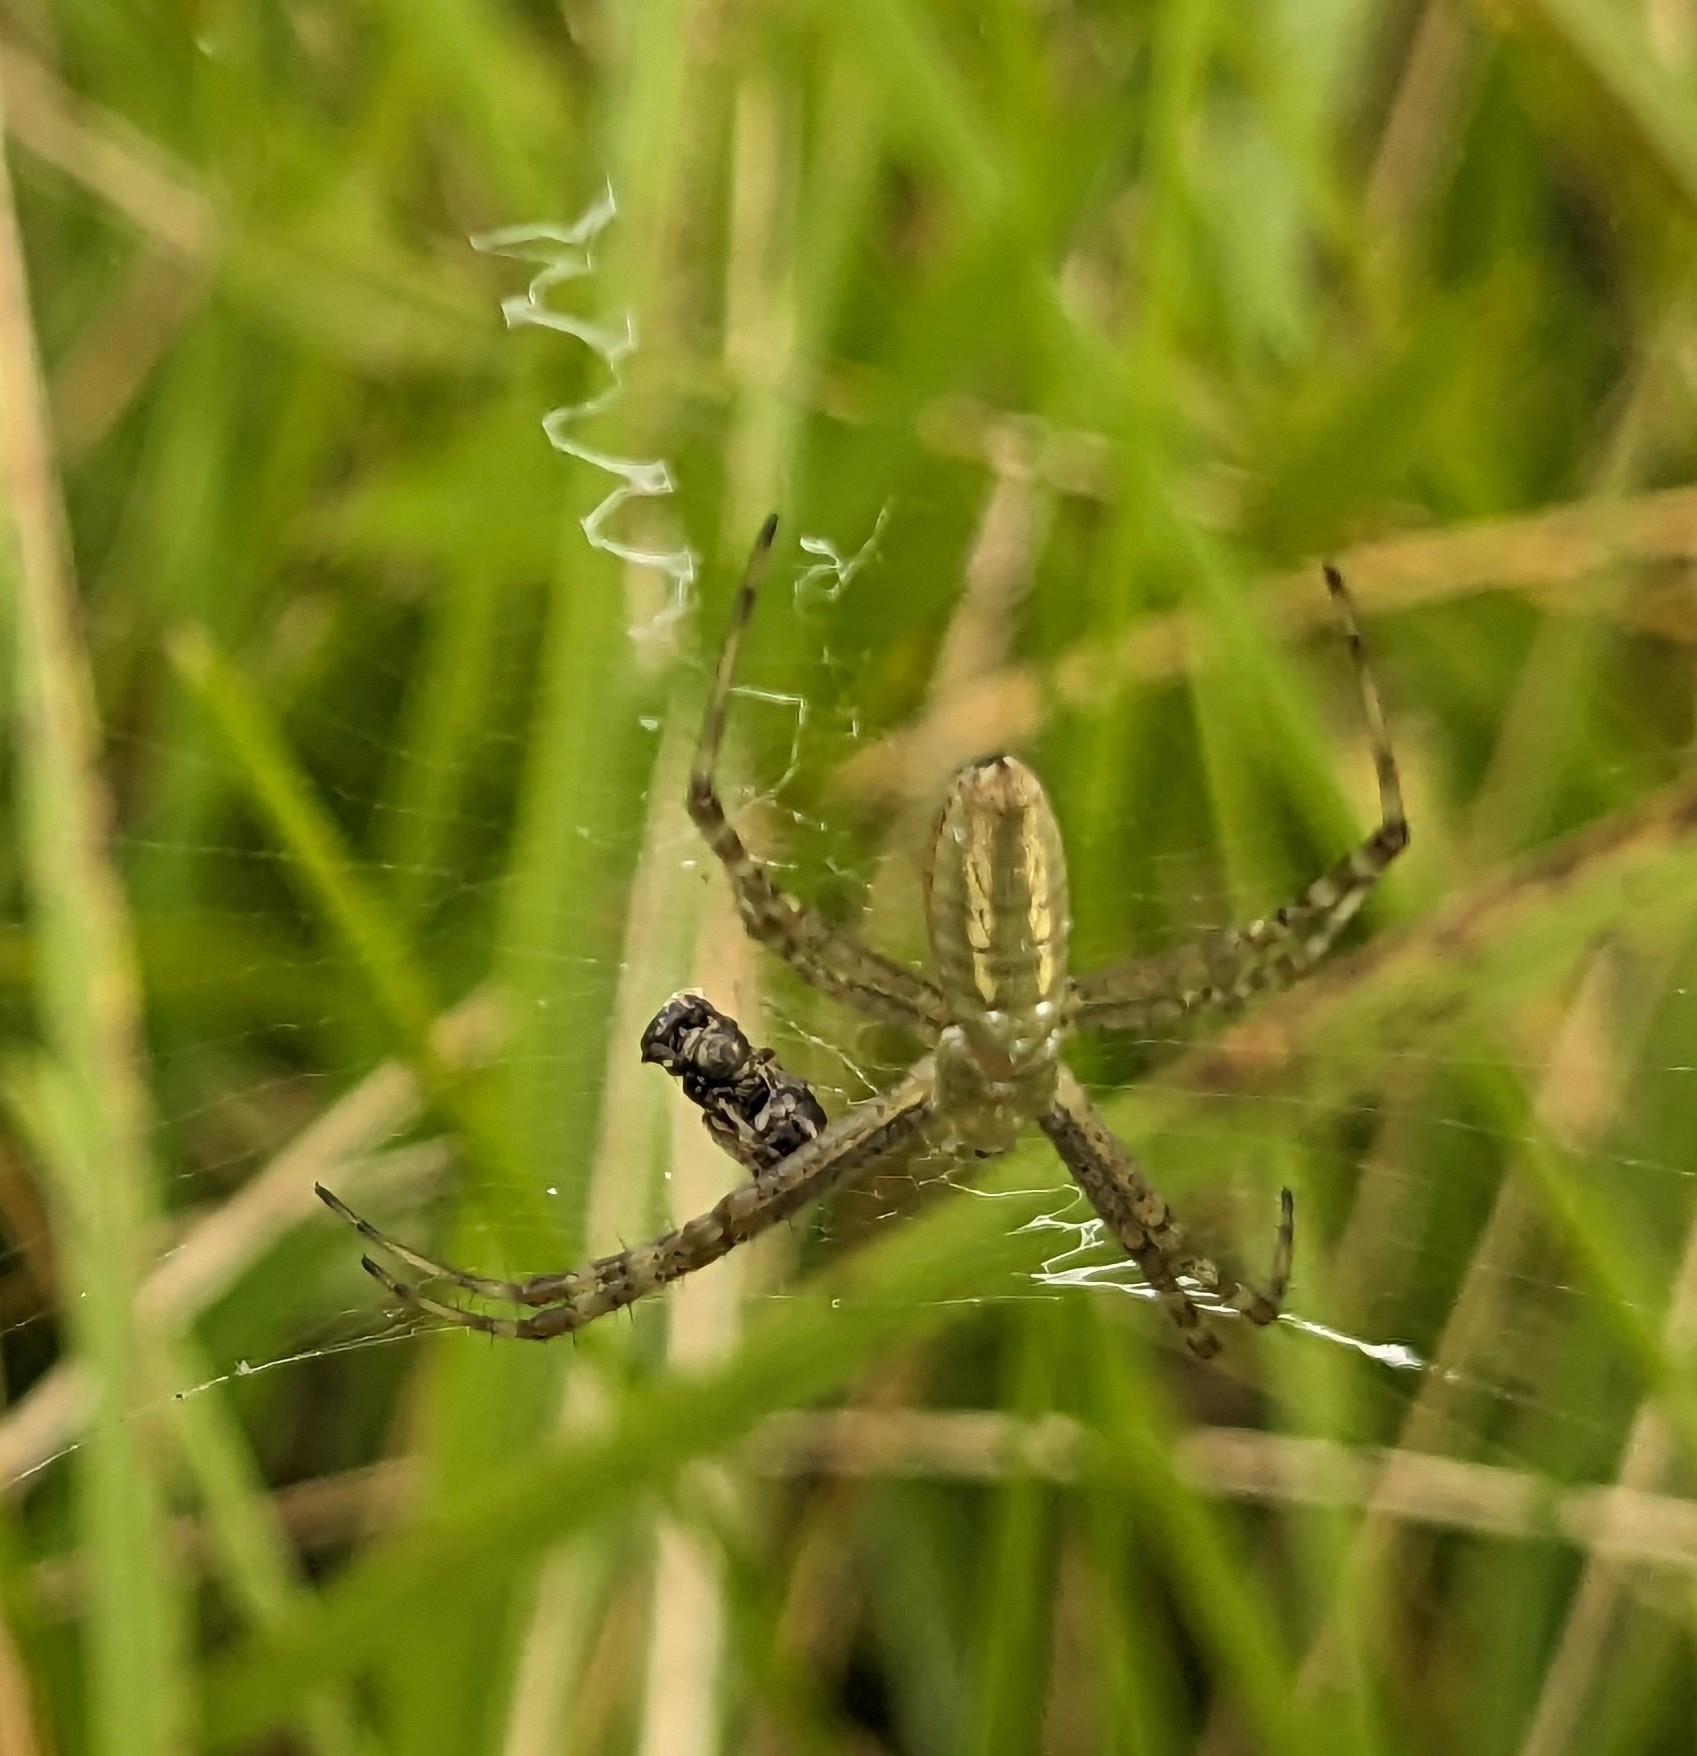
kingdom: Animalia
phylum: Arthropoda
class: Arachnida
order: Araneae
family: Araneidae
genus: Argiope
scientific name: Argiope trifasciata
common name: Banded garden spider
